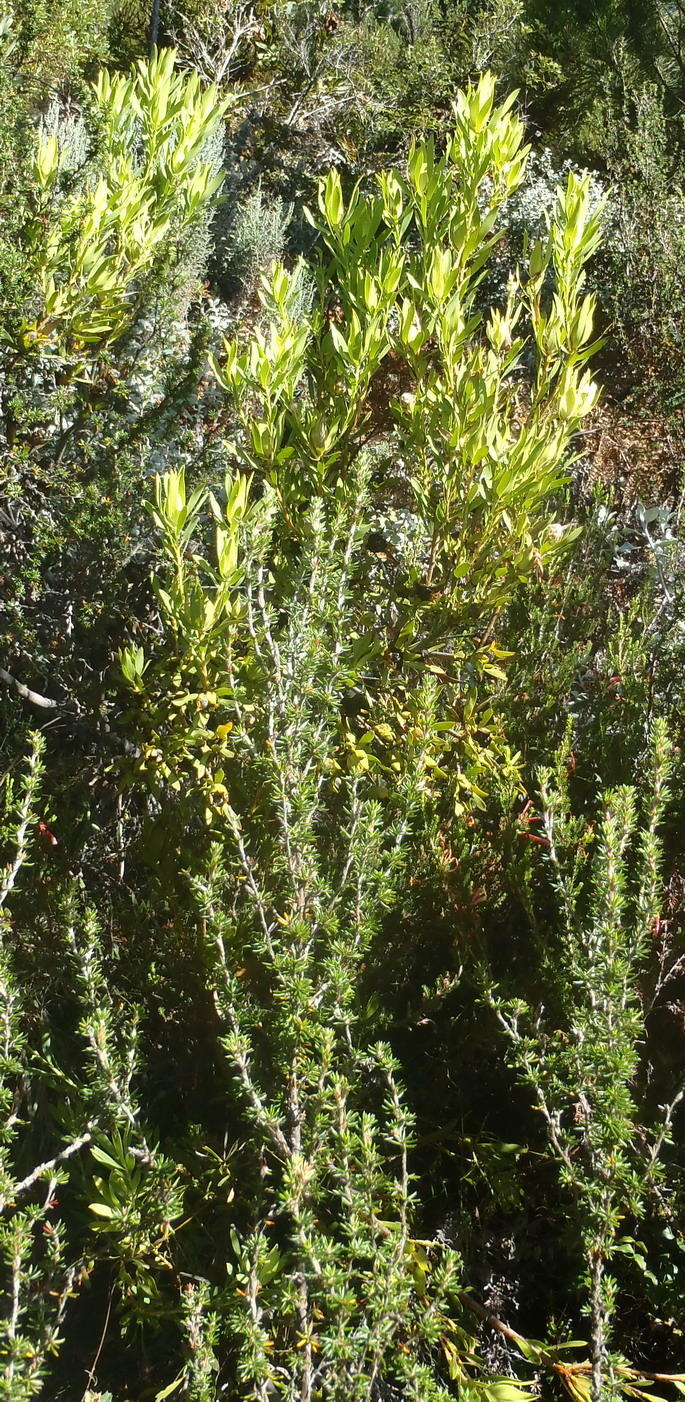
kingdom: Plantae
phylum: Tracheophyta
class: Magnoliopsida
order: Proteales
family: Proteaceae
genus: Leucadendron
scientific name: Leucadendron eucalyptifolium
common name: Gum-leaved conebush
